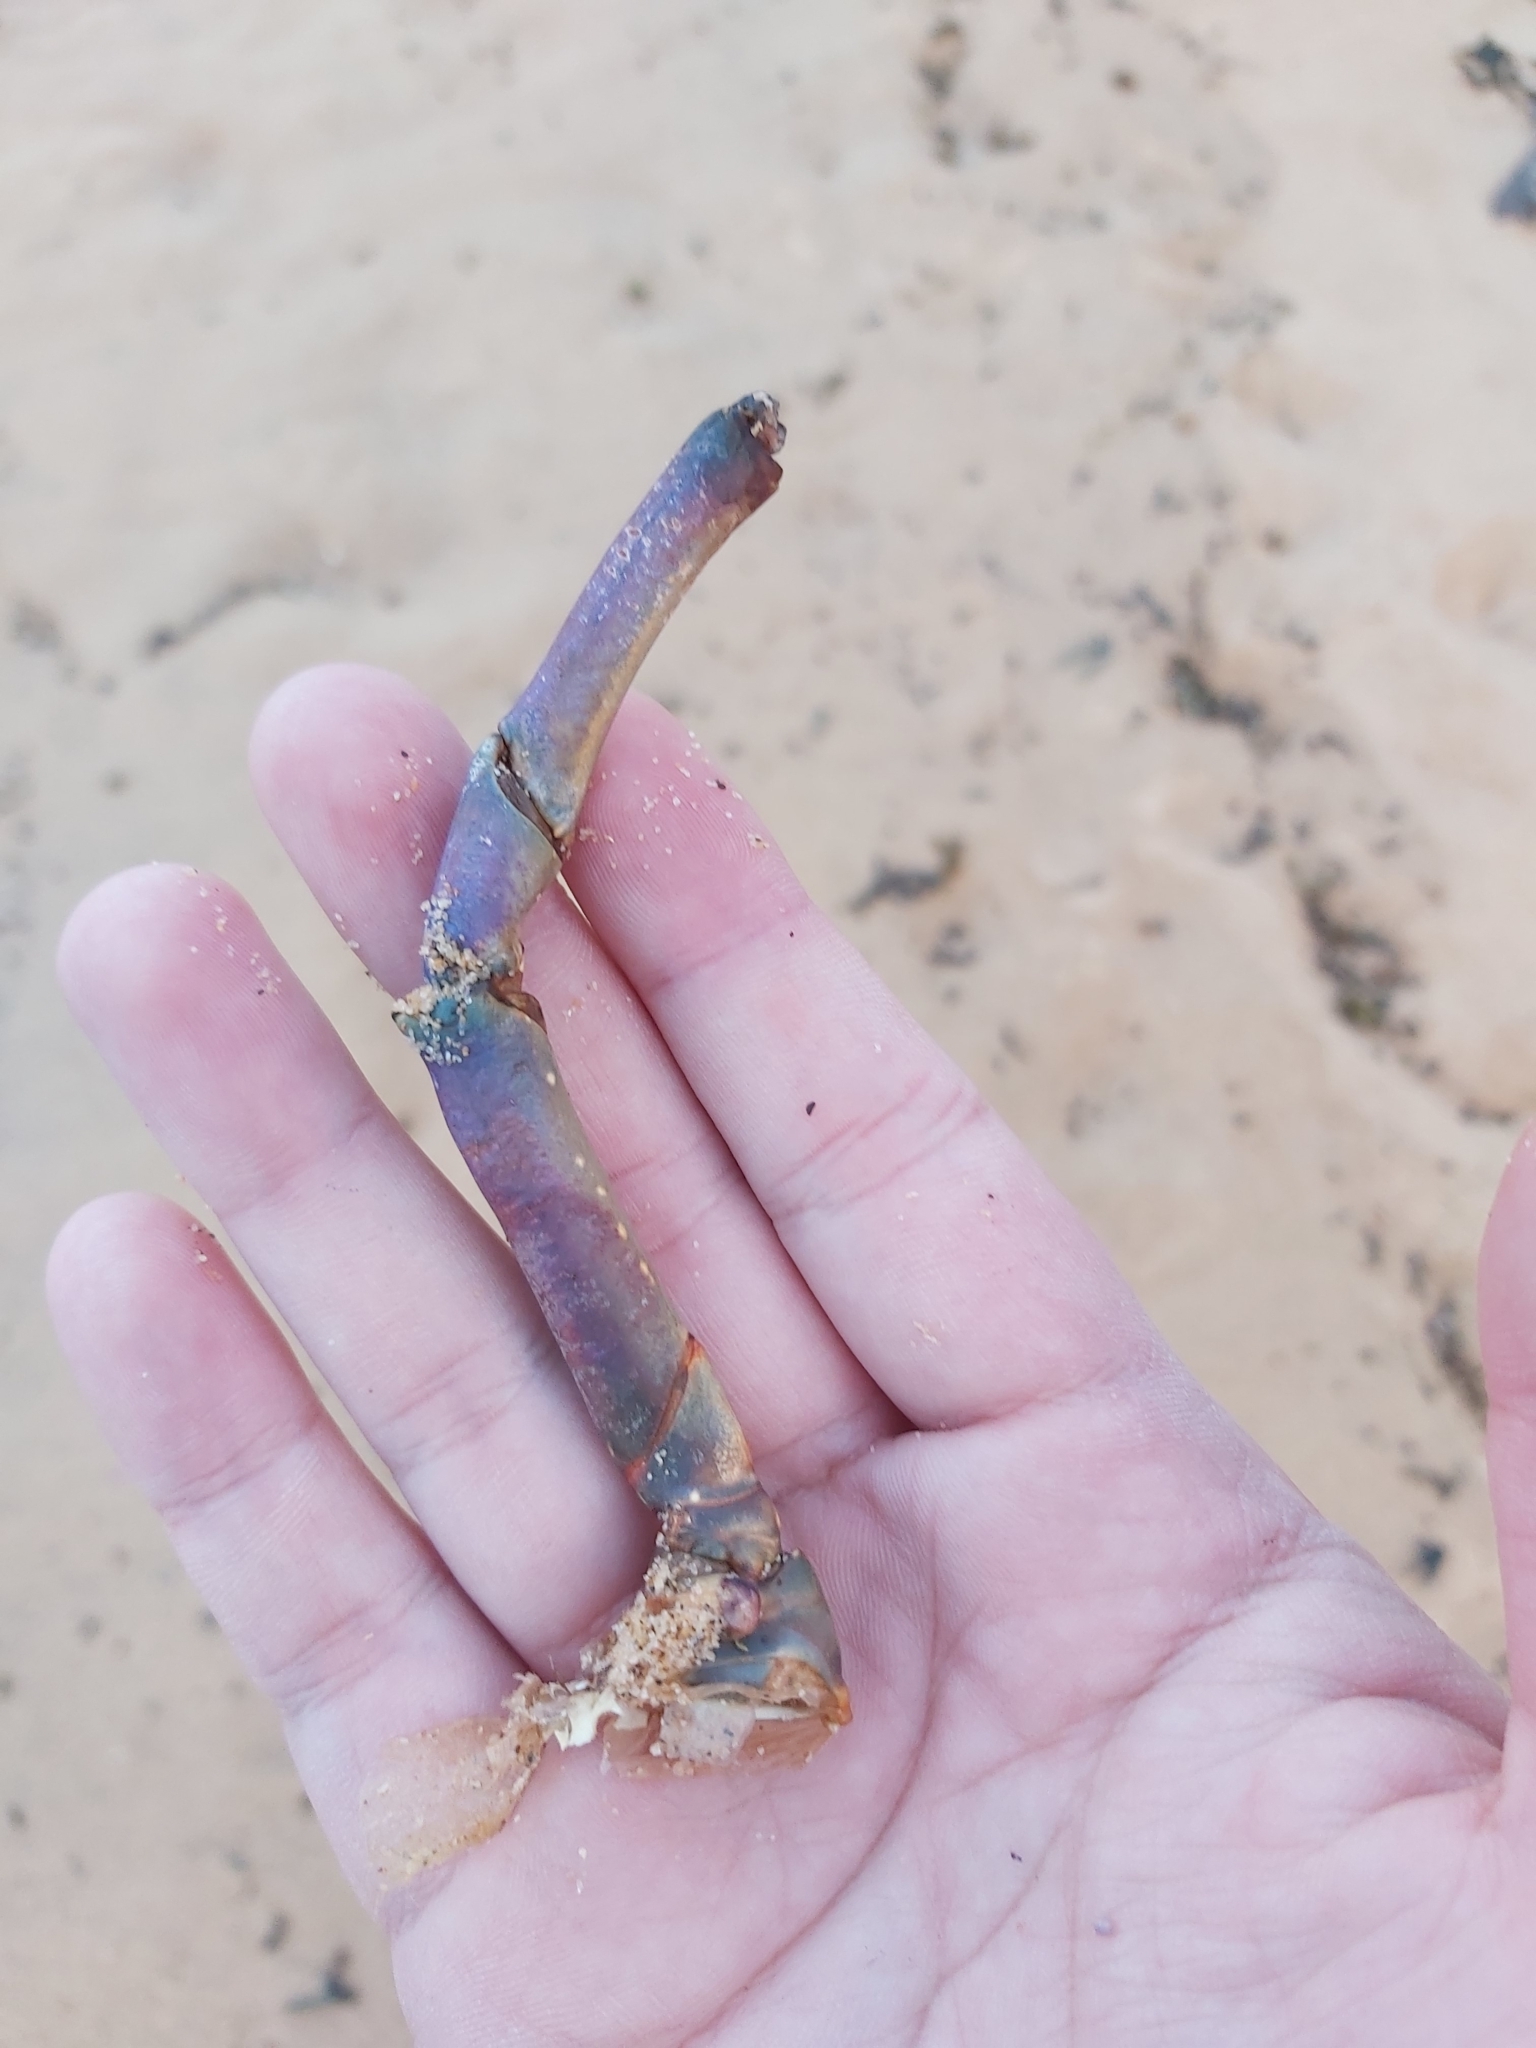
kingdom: Animalia
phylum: Arthropoda
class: Malacostraca
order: Decapoda
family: Palinuridae
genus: Sagmariasus
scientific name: Sagmariasus verreauxi
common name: Green rock lobster
